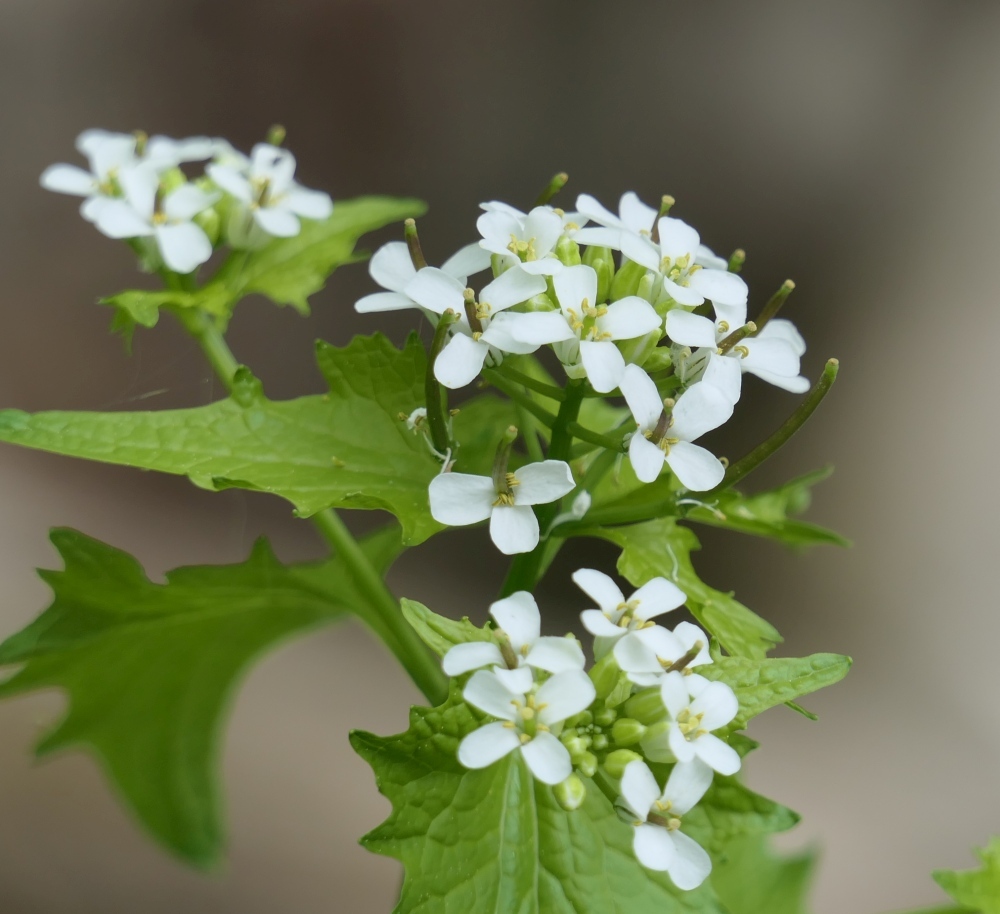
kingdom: Plantae
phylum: Tracheophyta
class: Magnoliopsida
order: Brassicales
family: Brassicaceae
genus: Alliaria
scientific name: Alliaria petiolata
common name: Garlic mustard
